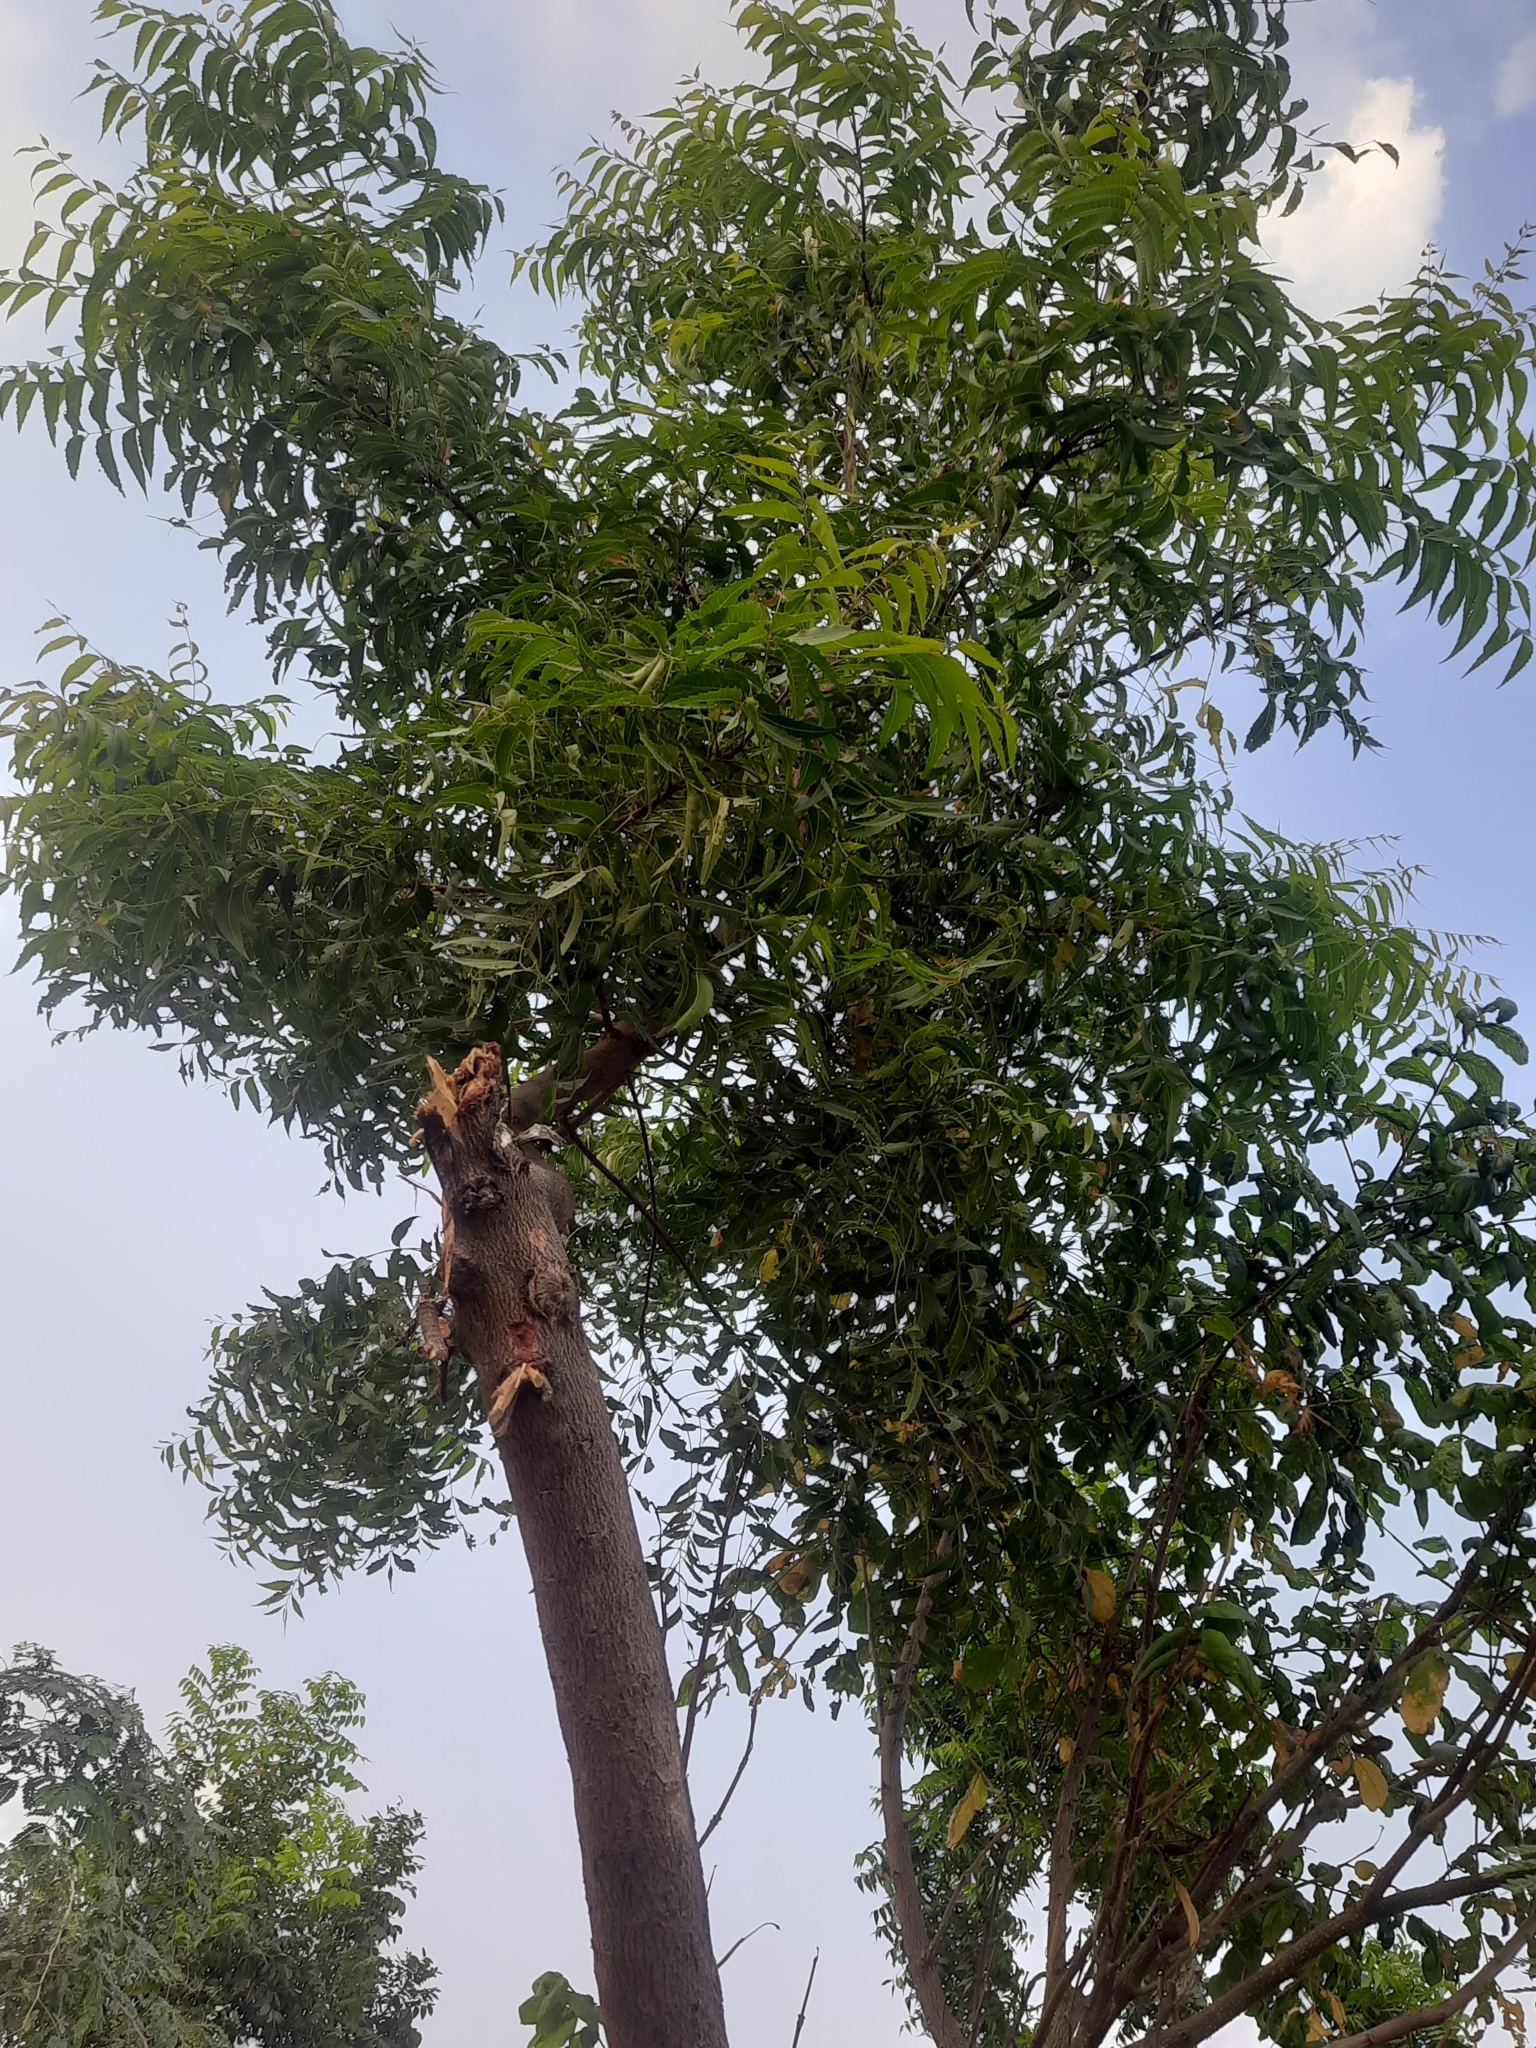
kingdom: Plantae
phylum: Tracheophyta
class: Magnoliopsida
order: Sapindales
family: Meliaceae
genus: Azadirachta
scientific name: Azadirachta indica
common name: Neem
